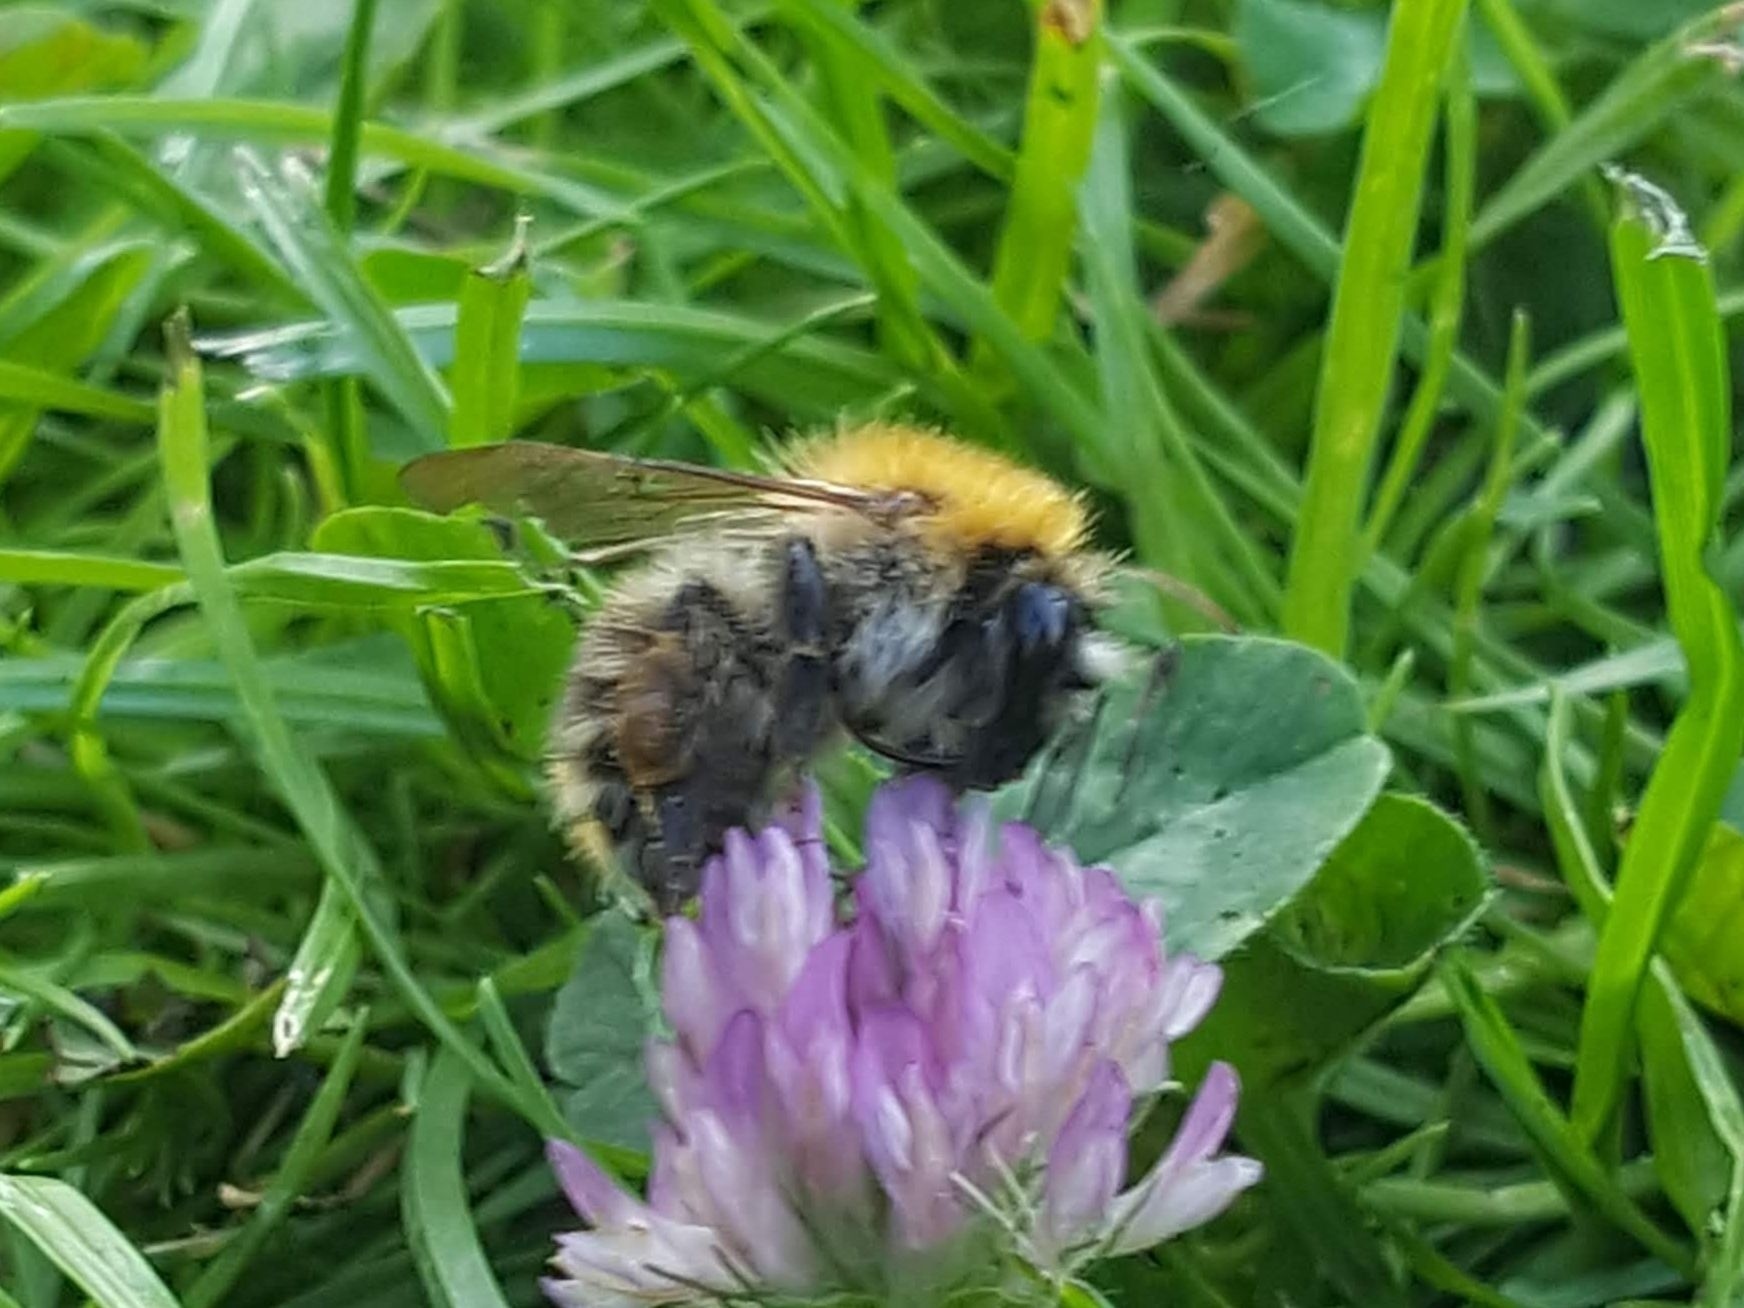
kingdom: Animalia
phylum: Arthropoda
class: Insecta
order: Hymenoptera
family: Apidae
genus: Bombus
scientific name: Bombus pascuorum
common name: Common carder bee
